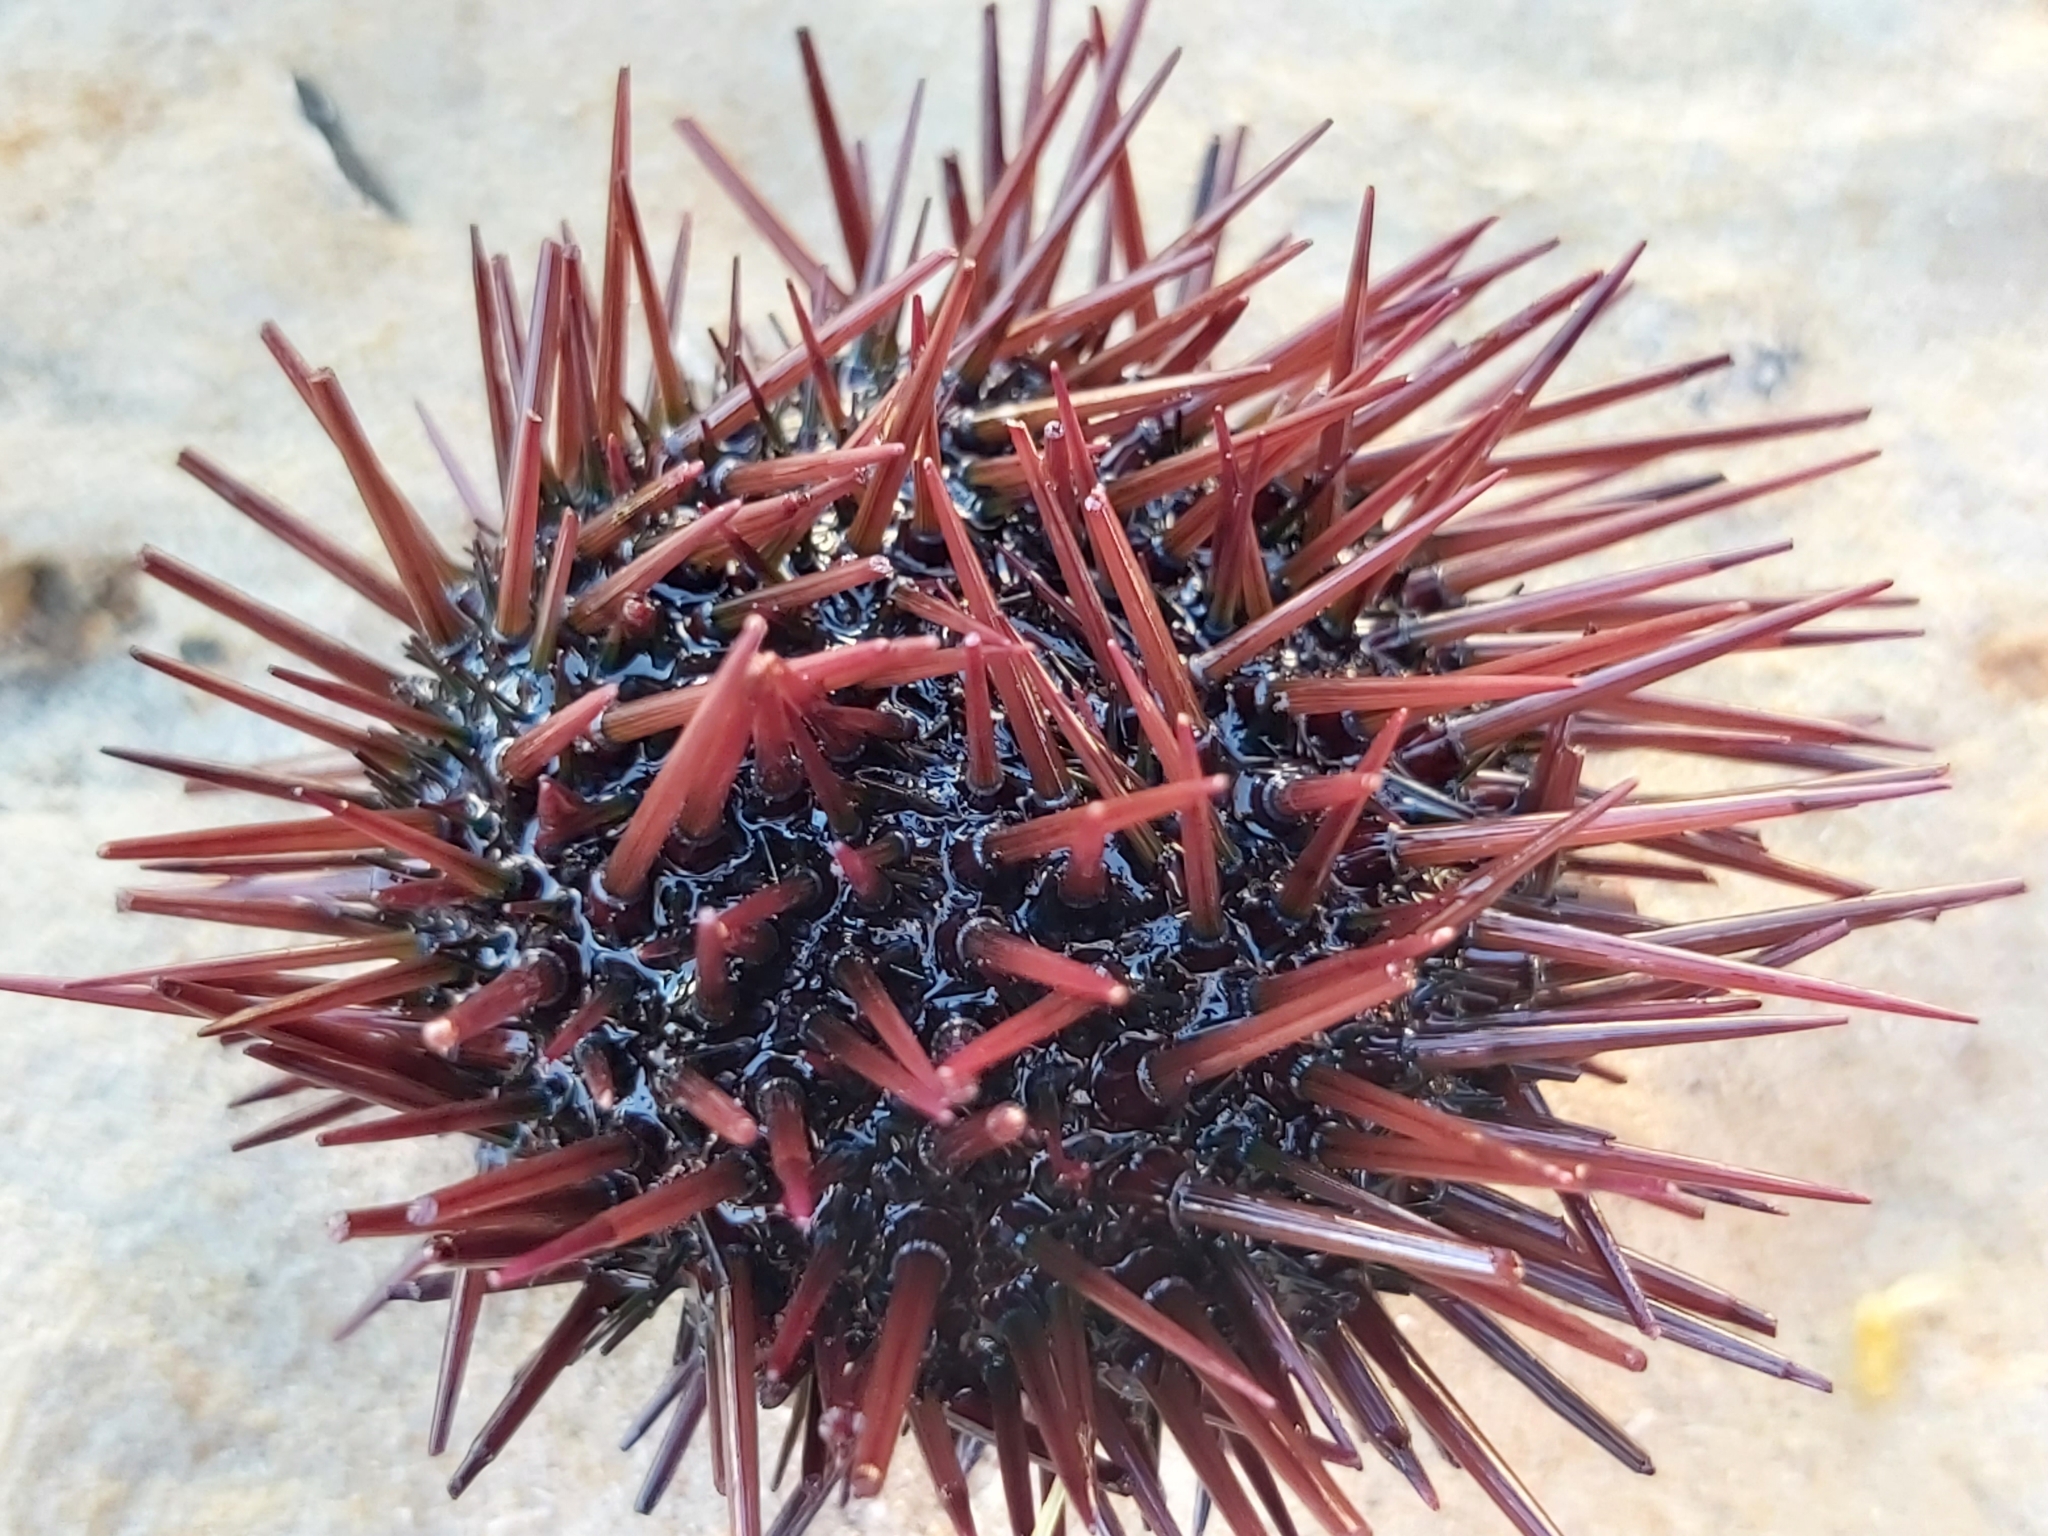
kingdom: Animalia
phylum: Echinodermata
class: Echinoidea
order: Camarodonta
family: Parechinidae
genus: Paracentrotus
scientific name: Paracentrotus lividus
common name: Purple sea urchin
